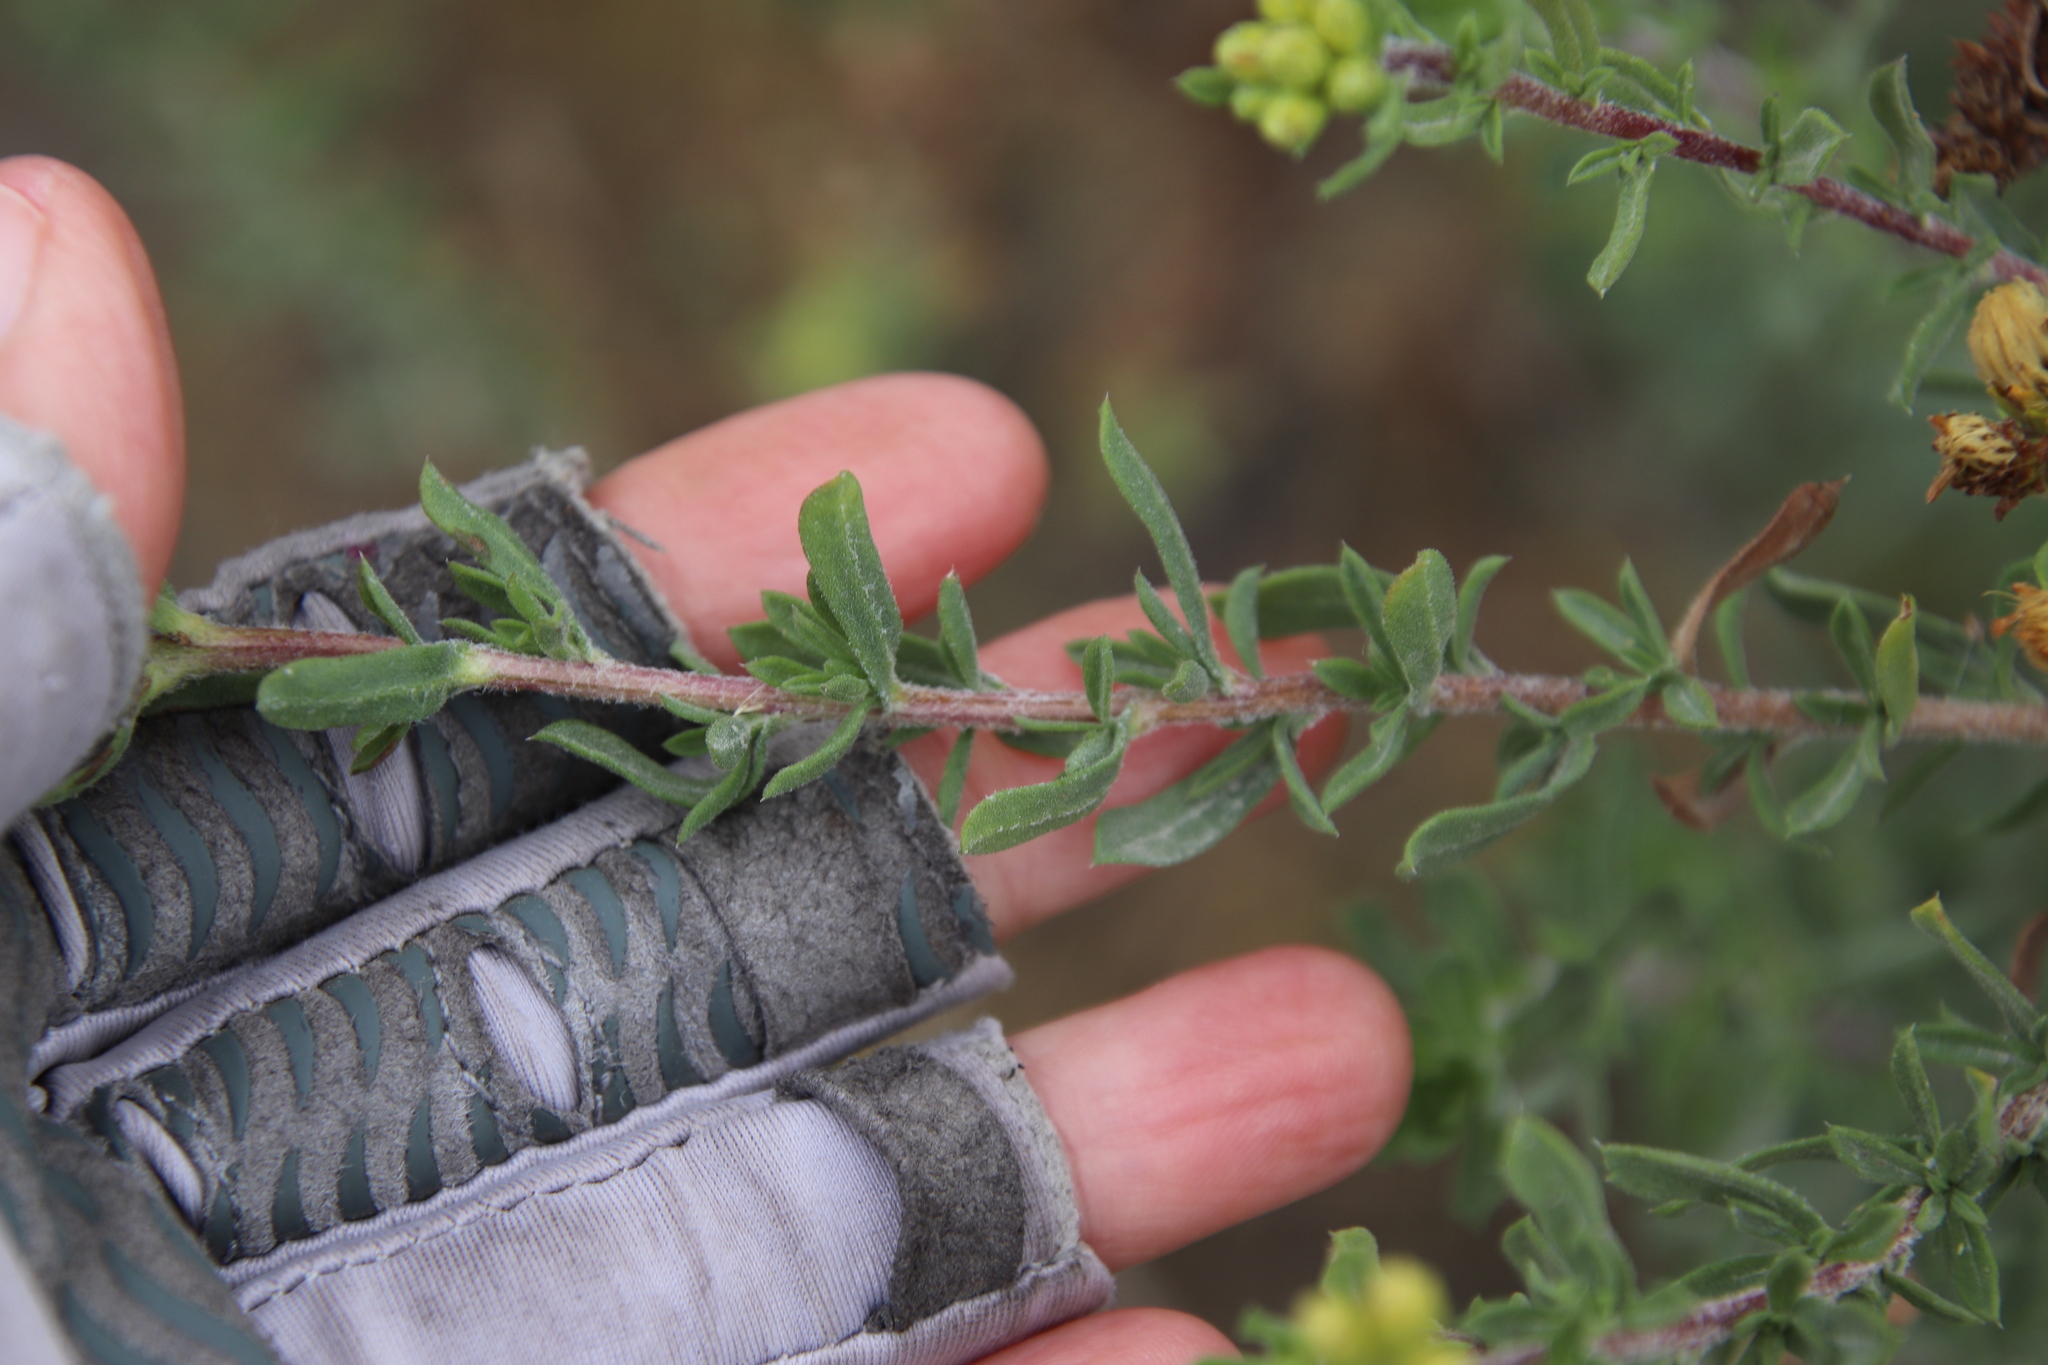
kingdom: Plantae
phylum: Tracheophyta
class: Magnoliopsida
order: Asterales
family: Asteraceae
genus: Isocoma
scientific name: Isocoma menziesii
